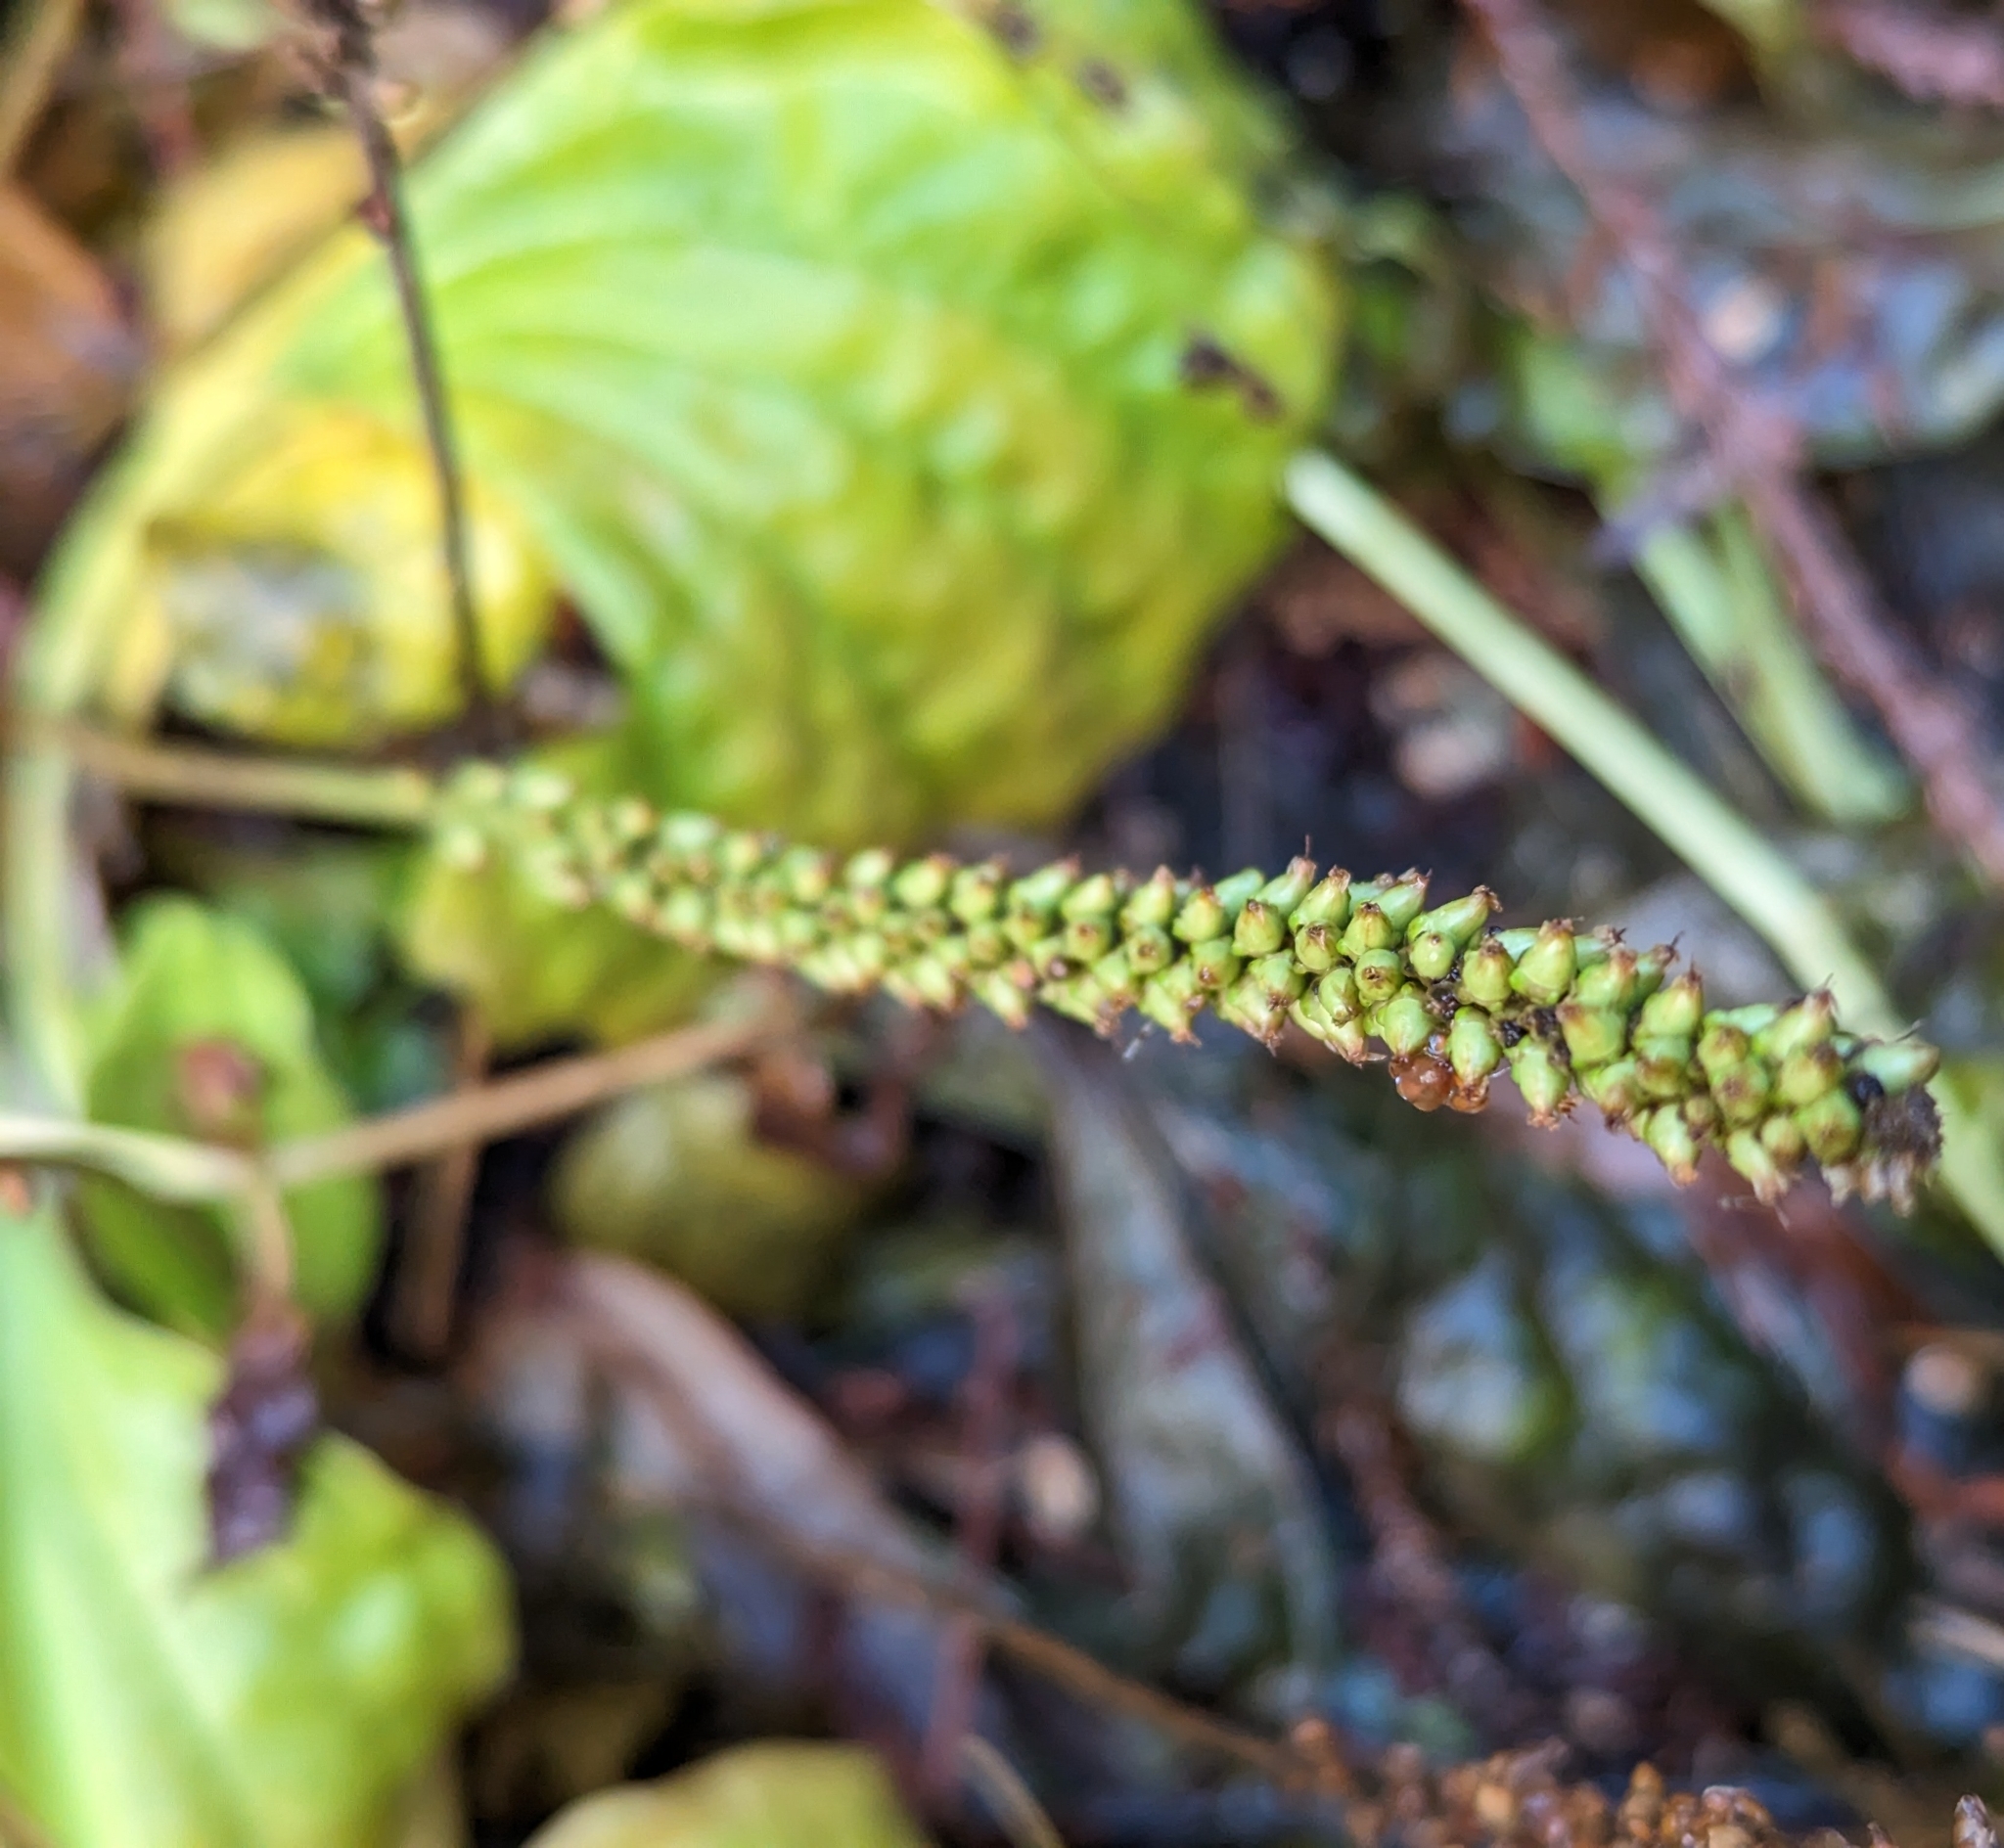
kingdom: Plantae
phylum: Tracheophyta
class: Magnoliopsida
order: Lamiales
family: Plantaginaceae
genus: Plantago
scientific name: Plantago major
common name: Common plantain
